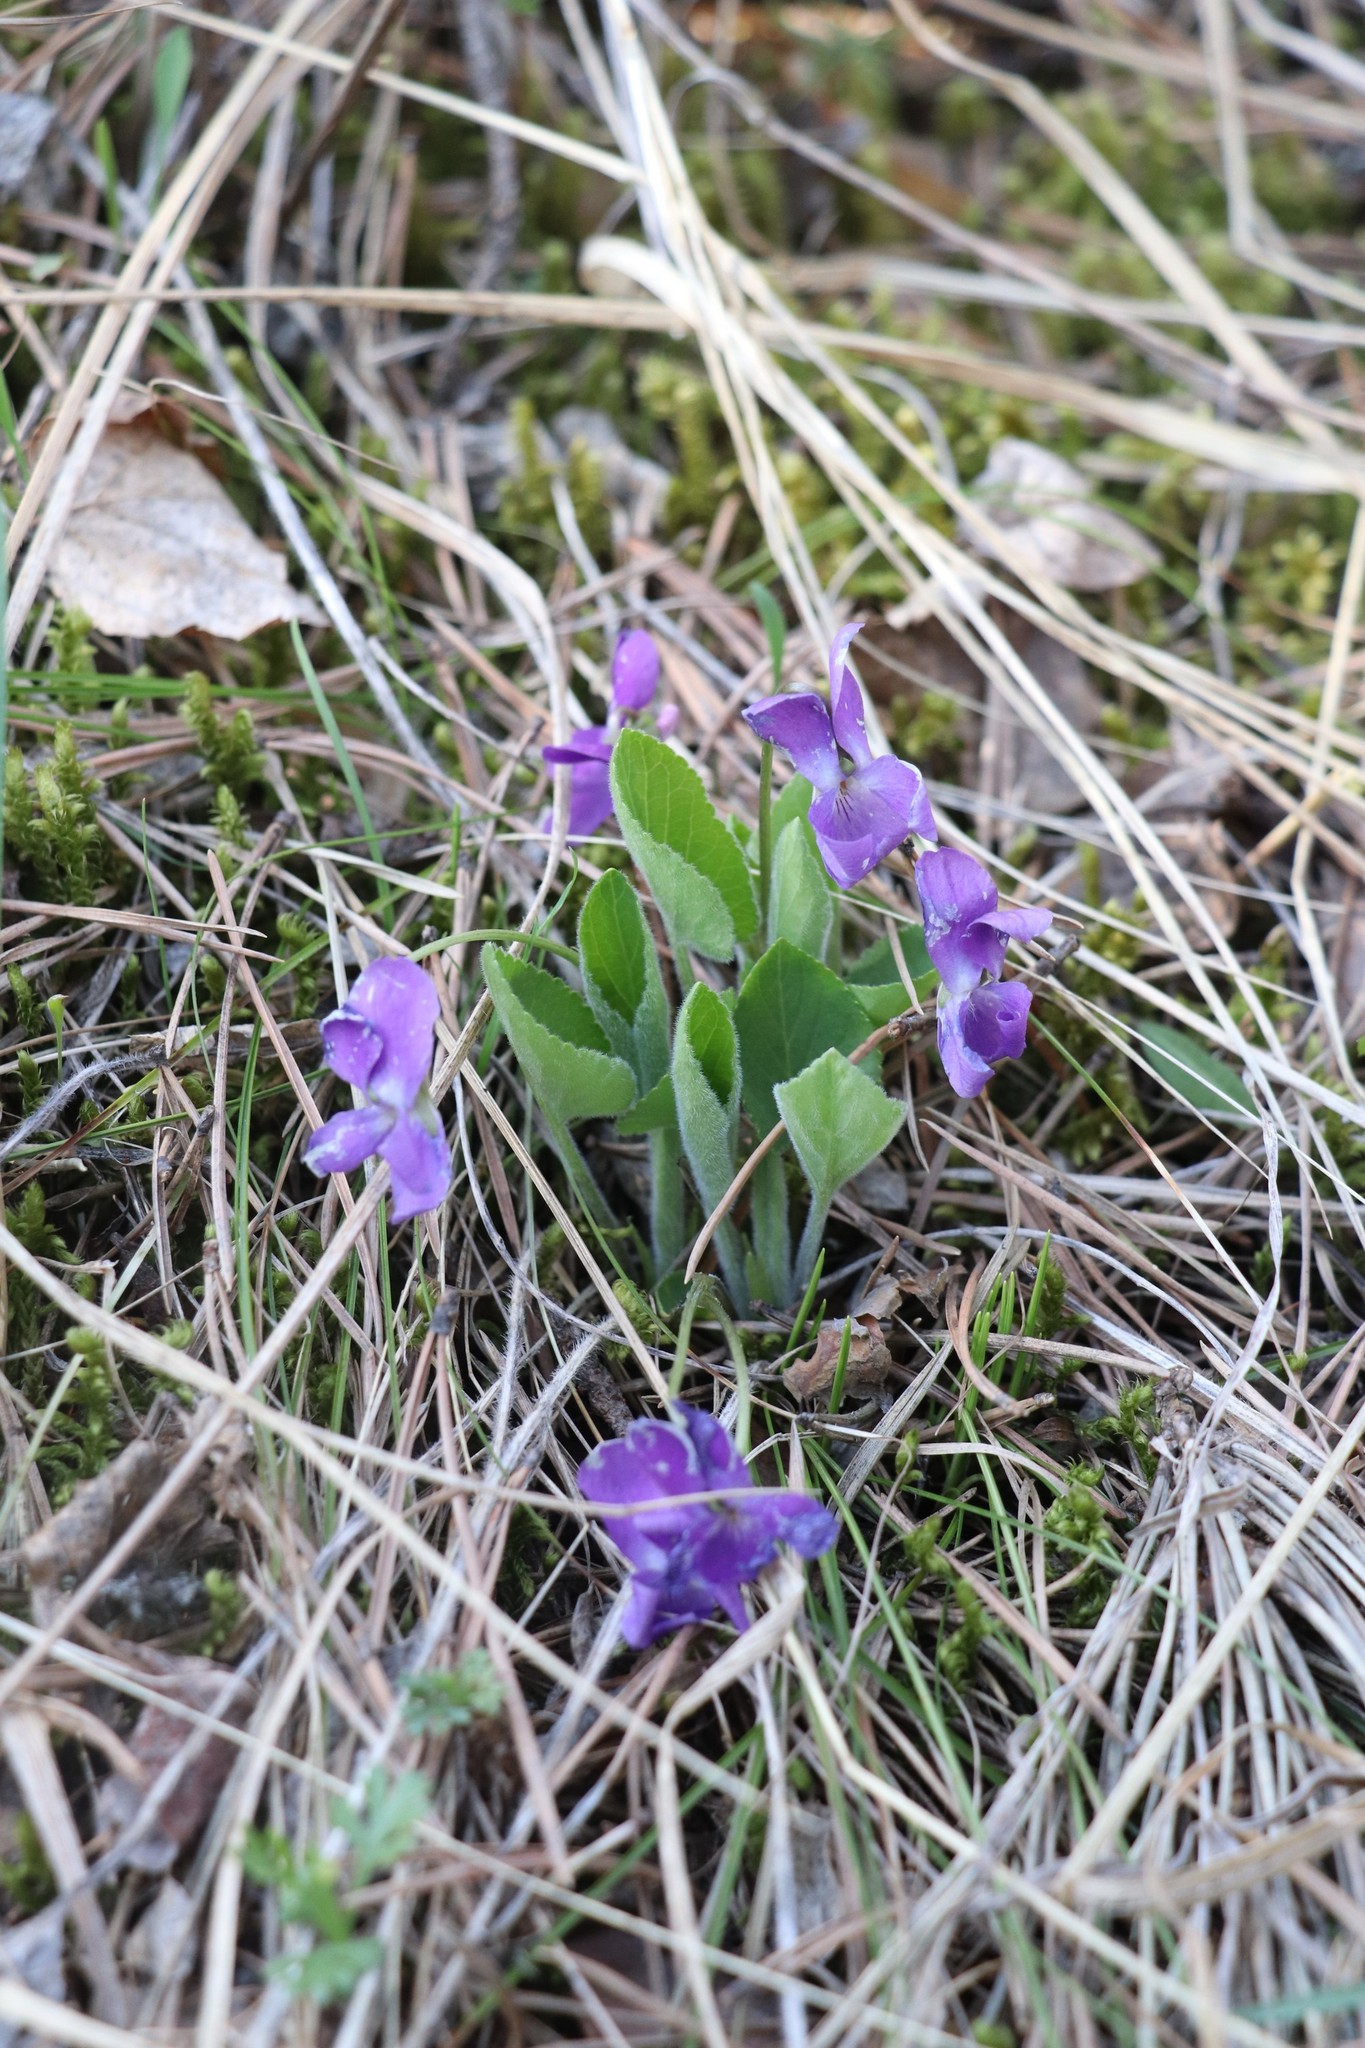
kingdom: Plantae
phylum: Tracheophyta
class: Magnoliopsida
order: Malpighiales
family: Violaceae
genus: Viola
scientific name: Viola hirta
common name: Hairy violet
